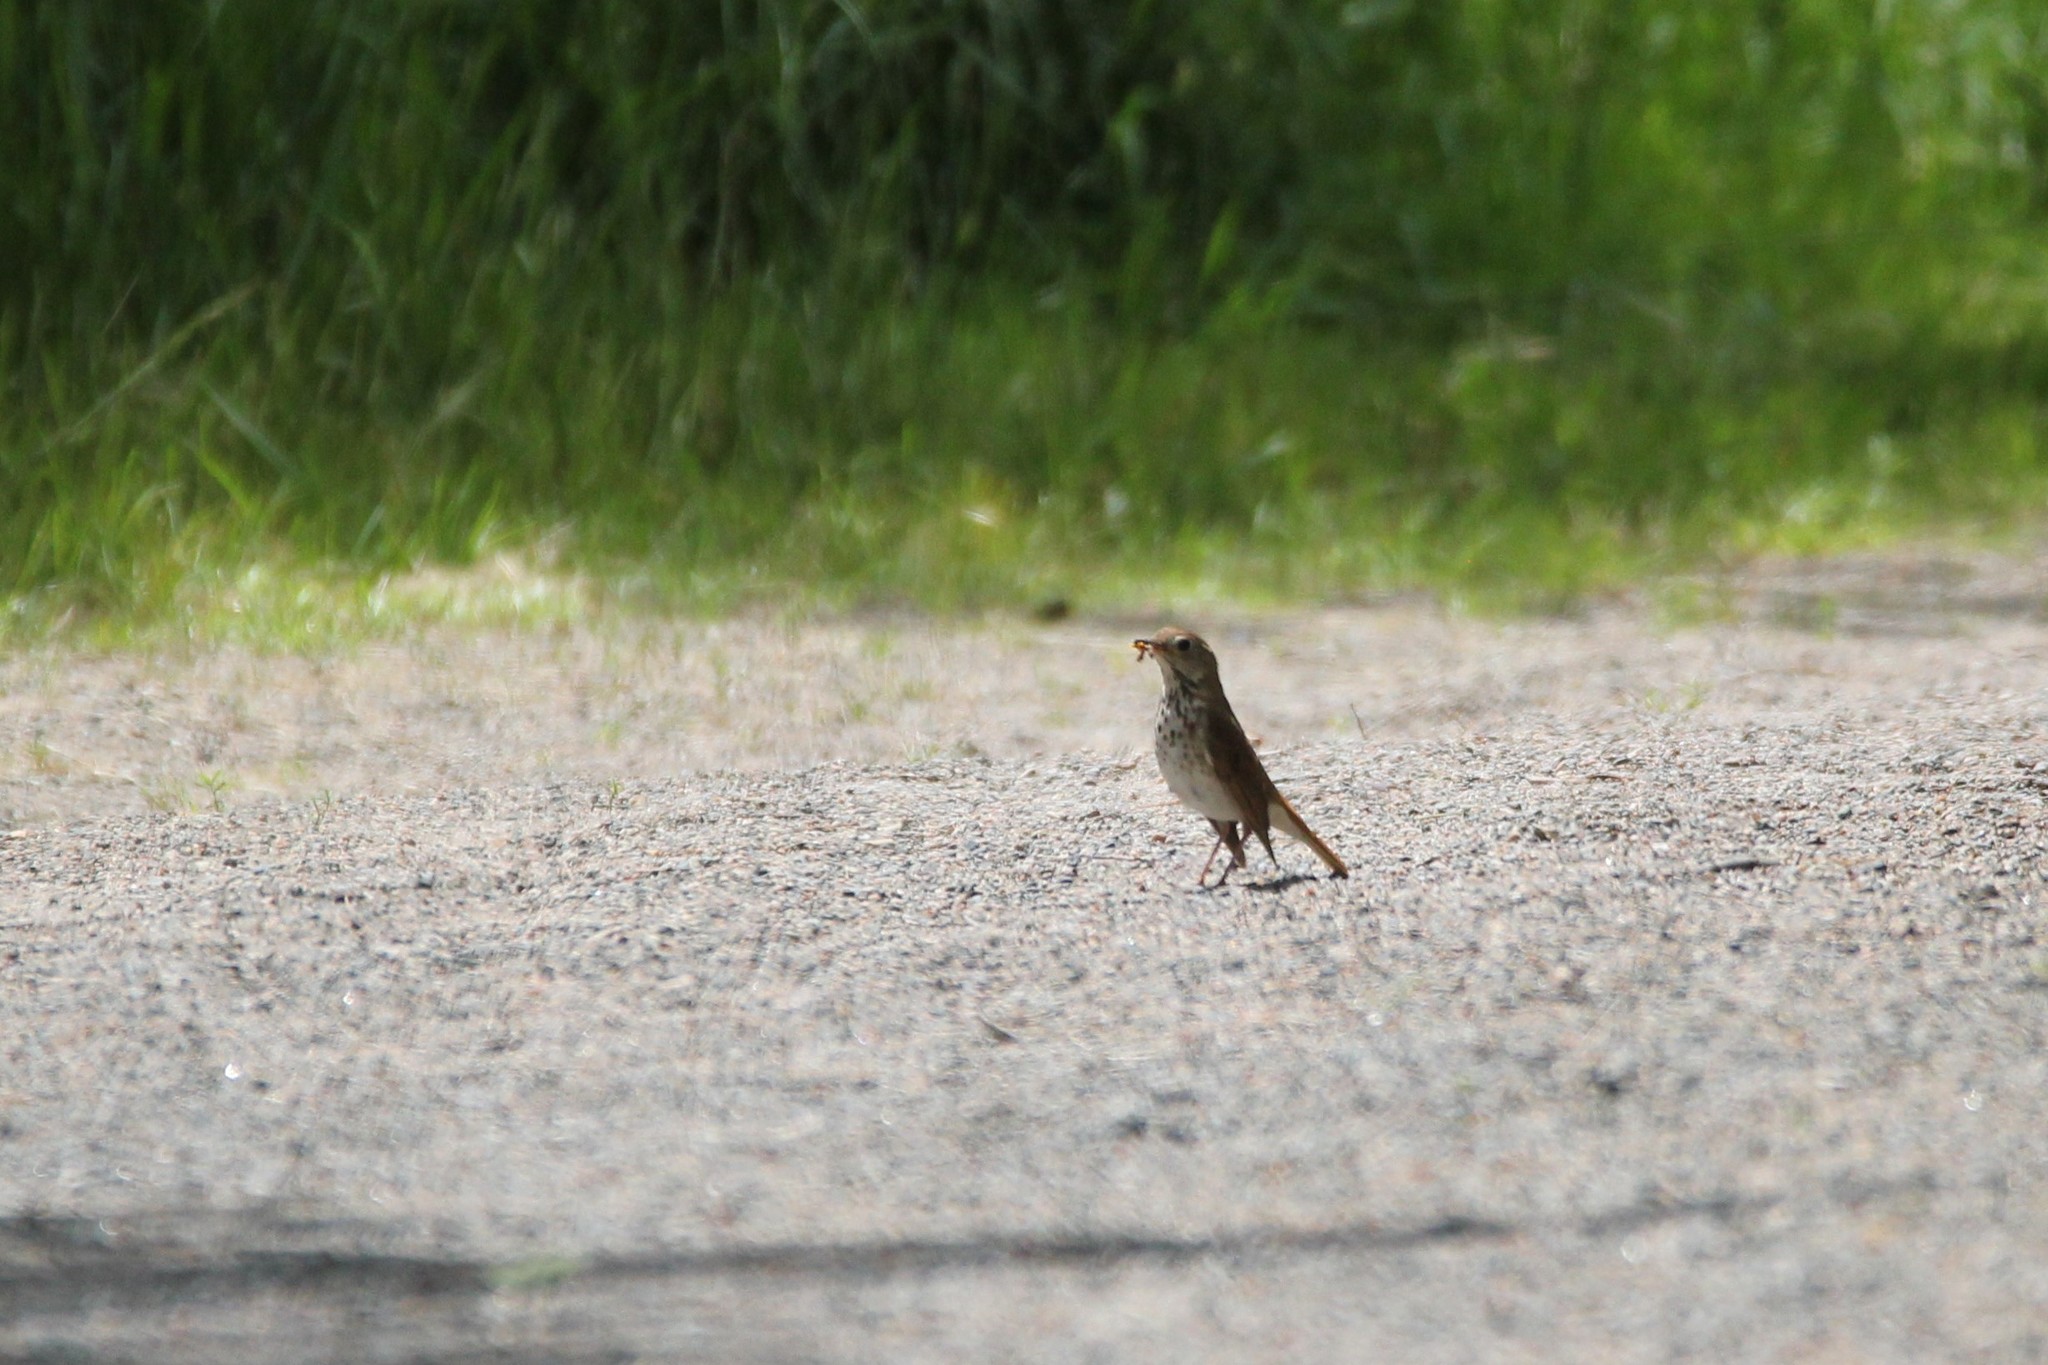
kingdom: Animalia
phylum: Chordata
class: Aves
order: Passeriformes
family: Turdidae
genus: Catharus
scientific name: Catharus guttatus
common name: Hermit thrush
